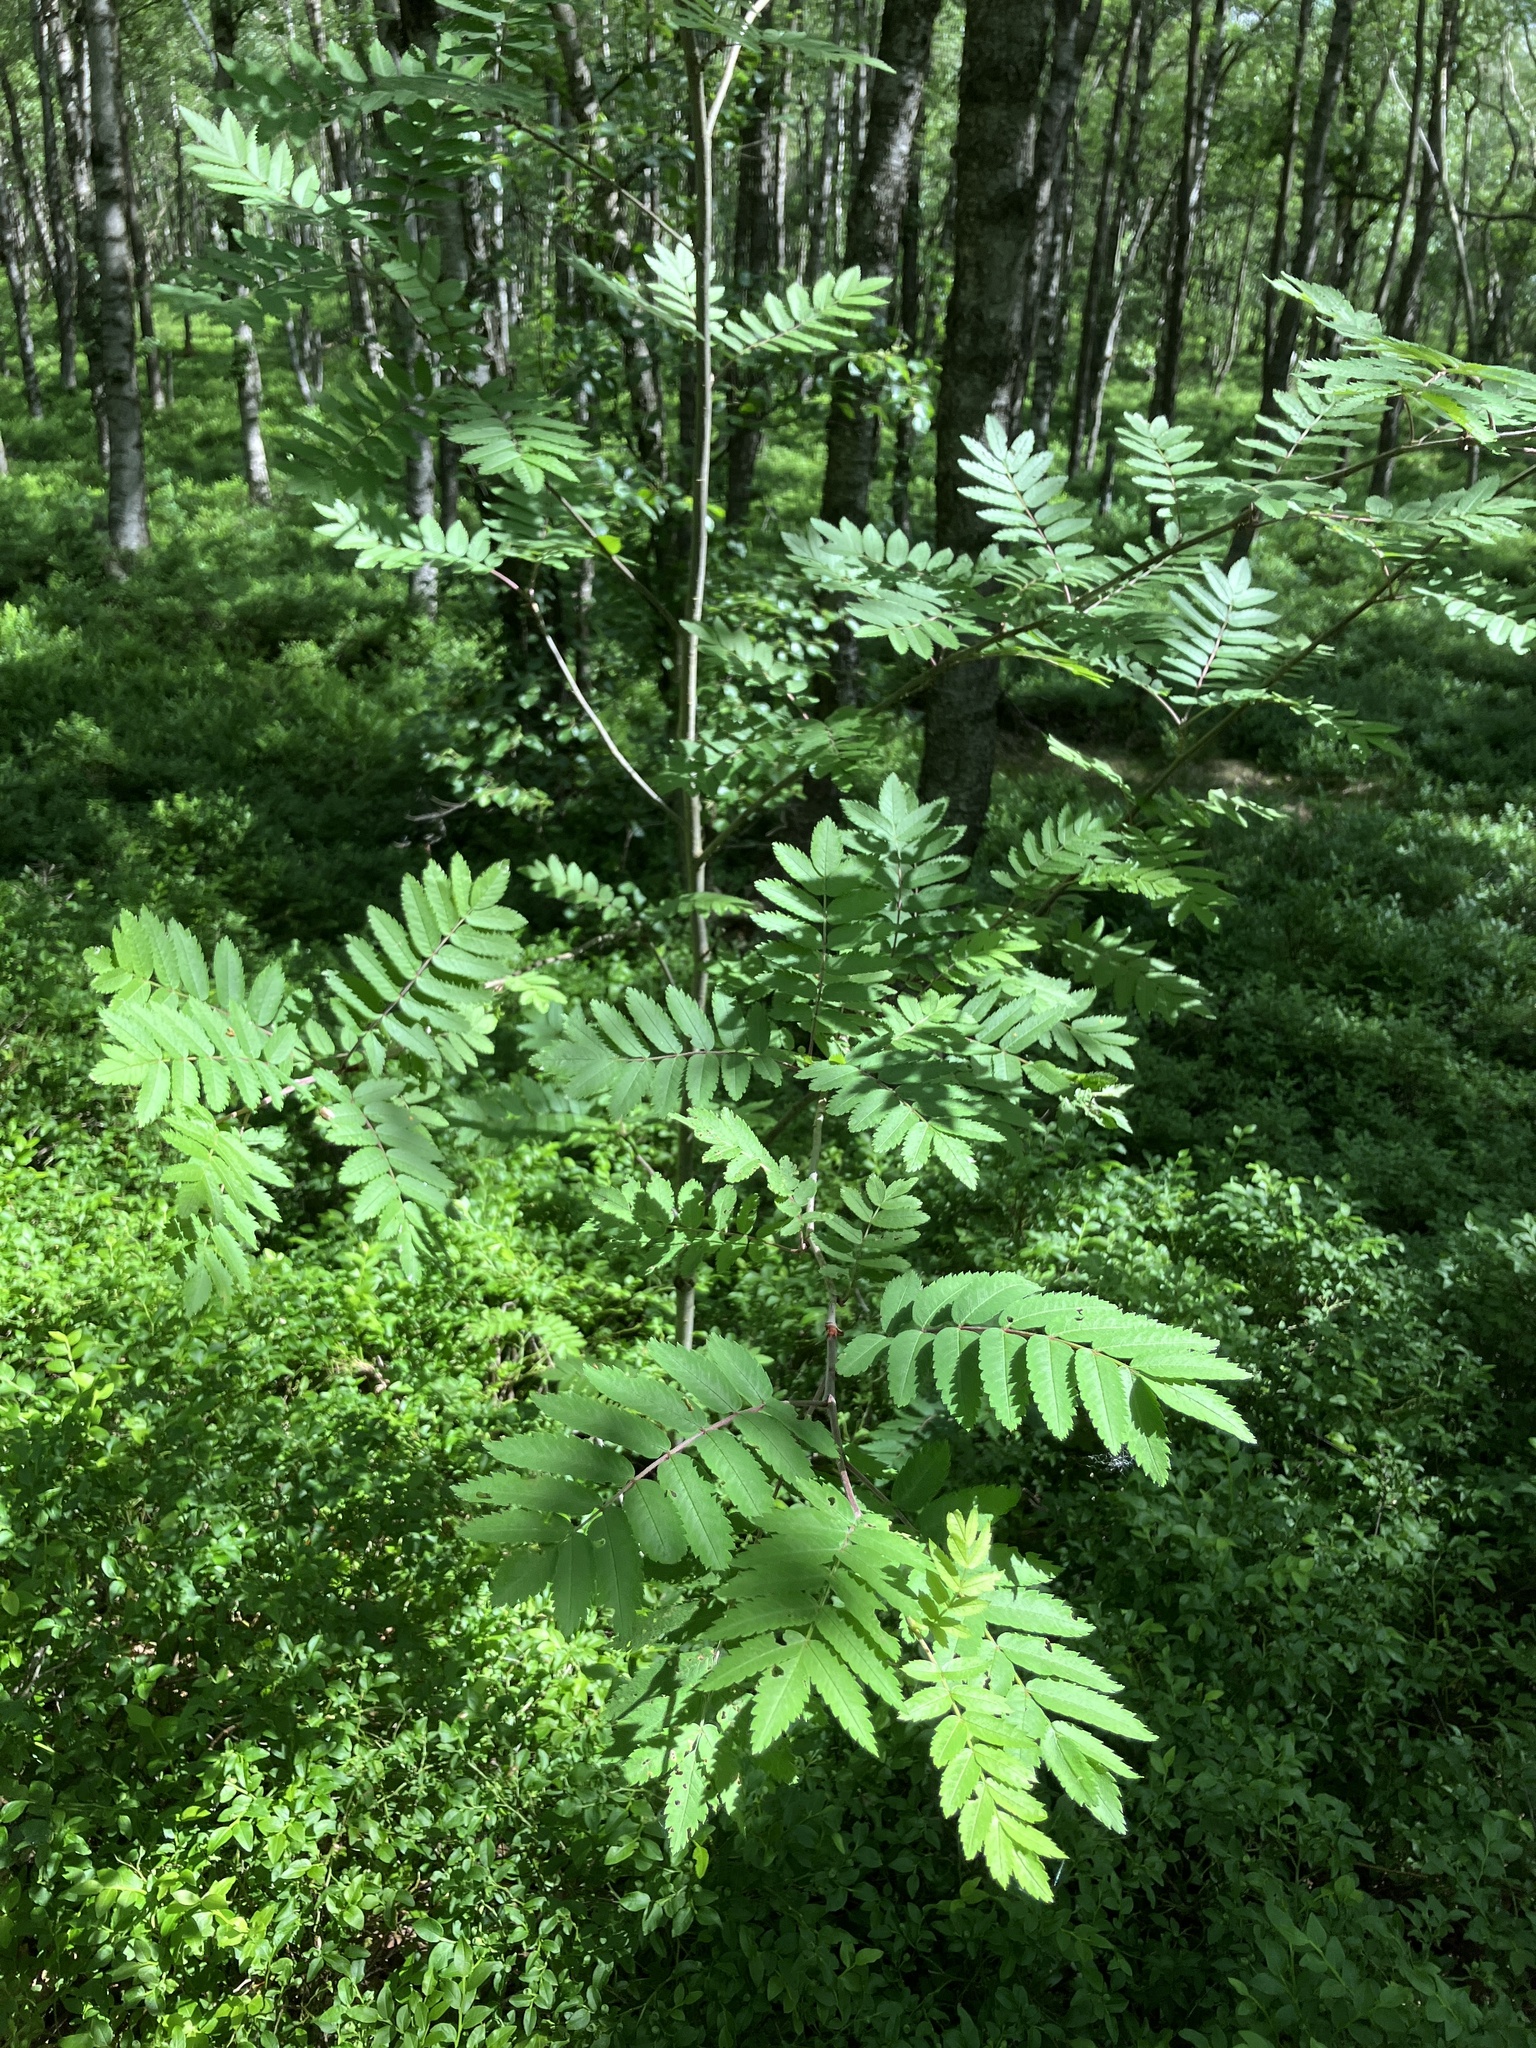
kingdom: Plantae
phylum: Tracheophyta
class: Magnoliopsida
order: Rosales
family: Rosaceae
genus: Sorbus
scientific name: Sorbus aucuparia
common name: Rowan
